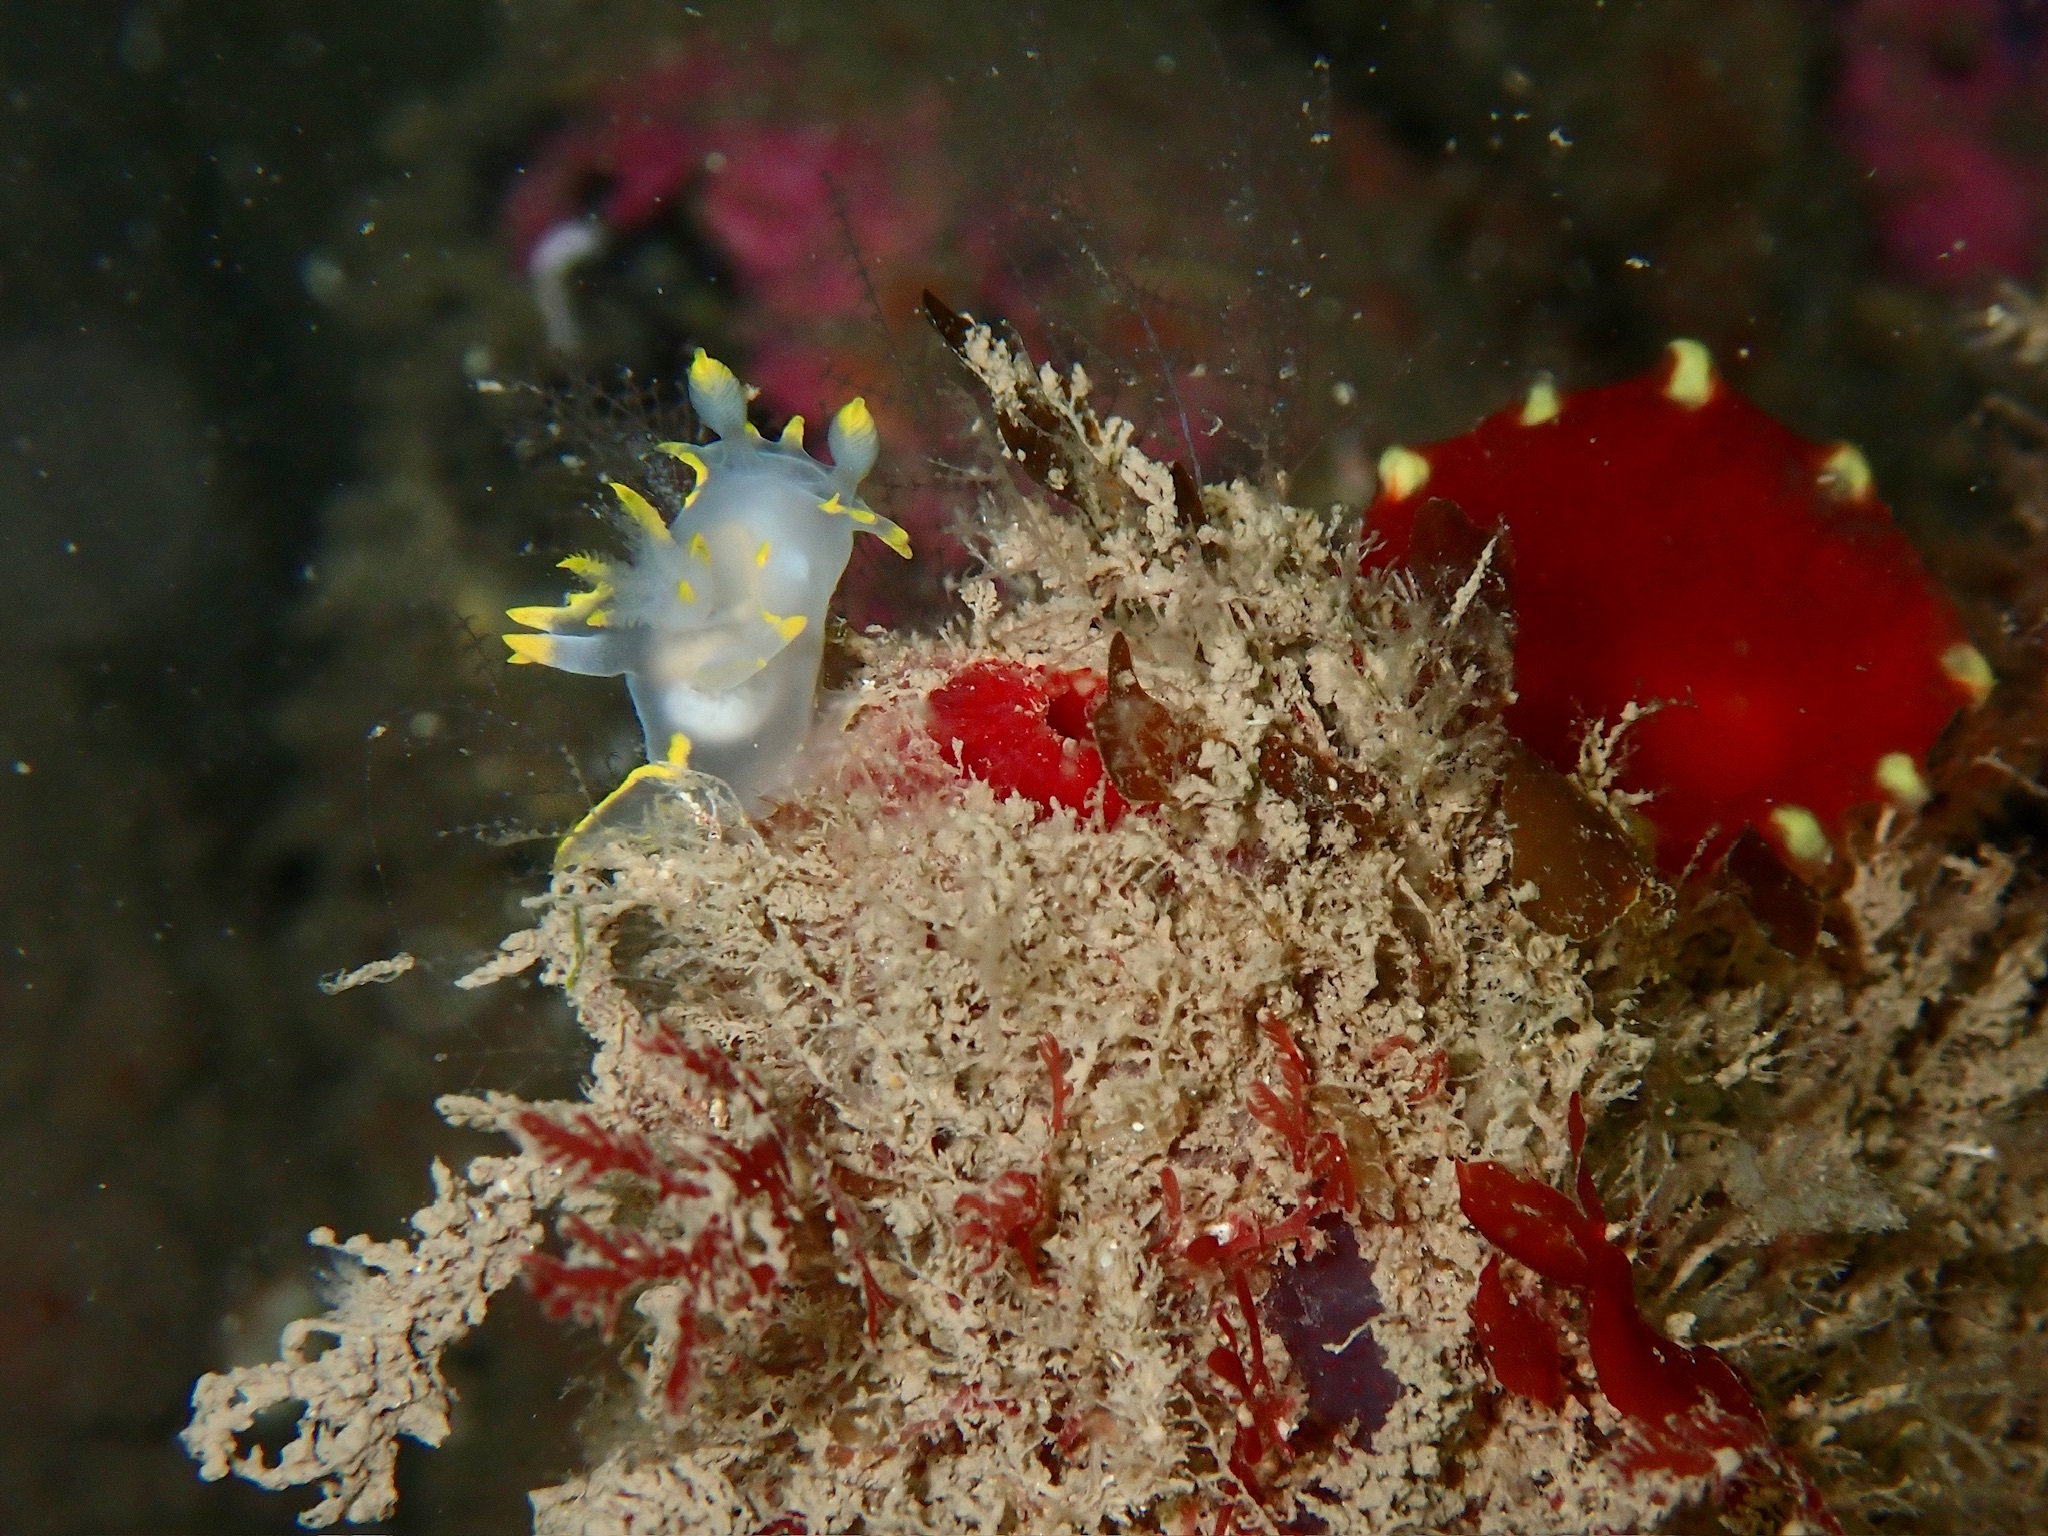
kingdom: Animalia
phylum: Mollusca
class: Gastropoda
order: Nudibranchia
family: Polyceridae
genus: Polycera
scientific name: Polycera faeroensis
